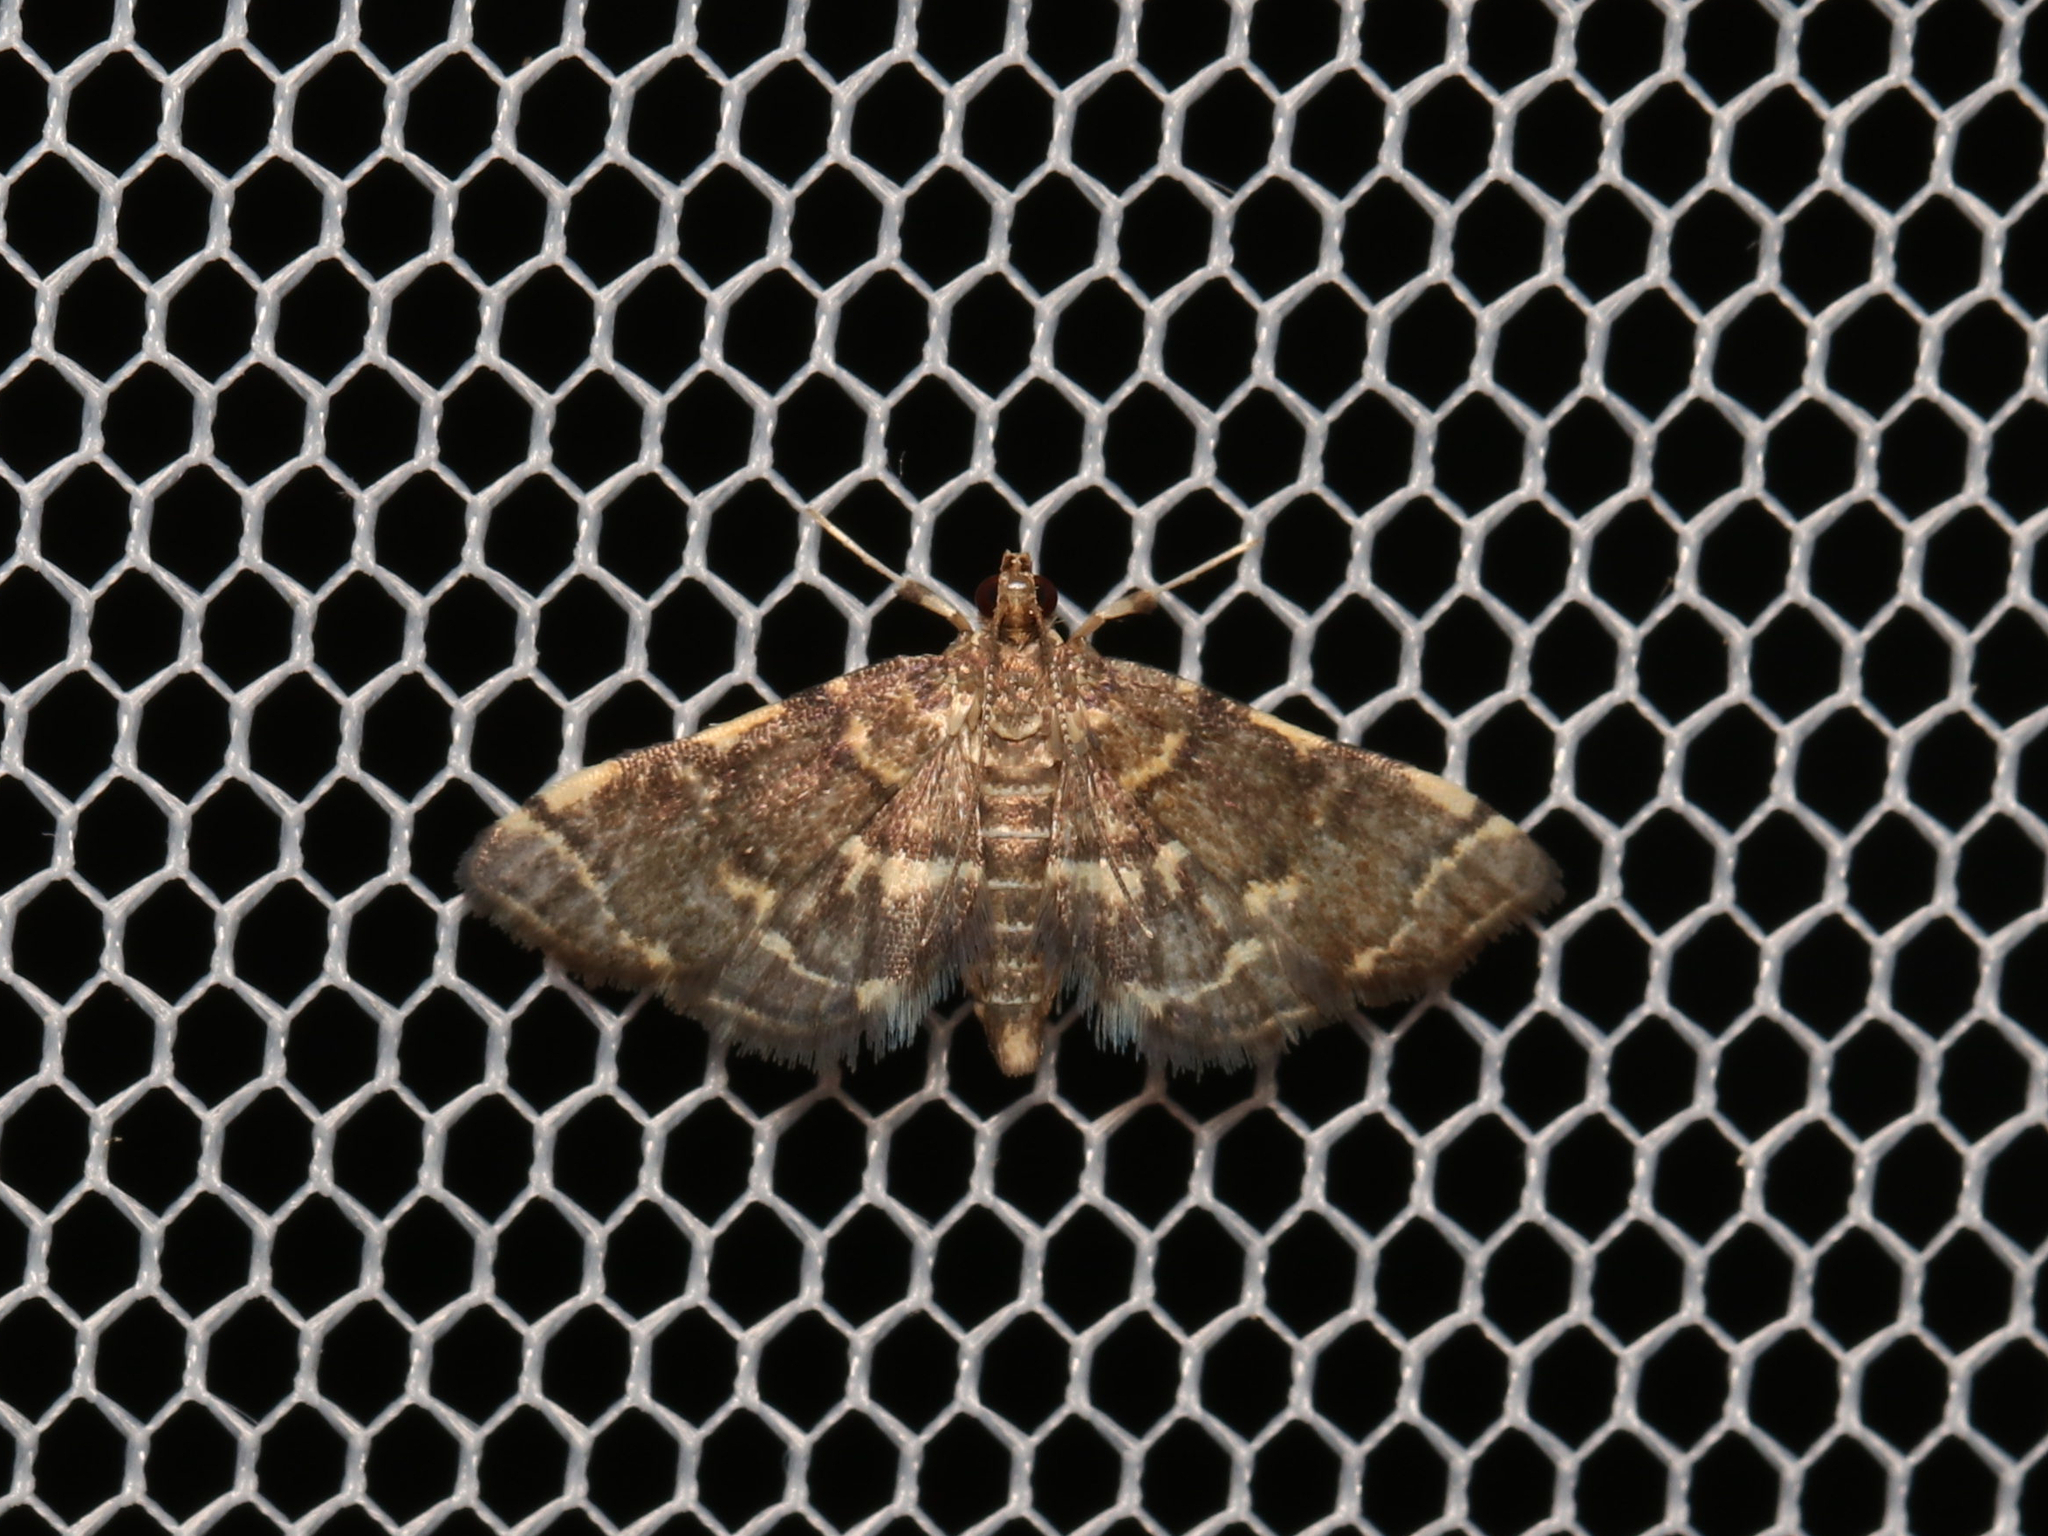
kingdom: Animalia
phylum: Arthropoda
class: Insecta
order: Lepidoptera
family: Crambidae
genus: Anageshna
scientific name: Anageshna primordialis
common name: Yellow-spotted webworm moth
